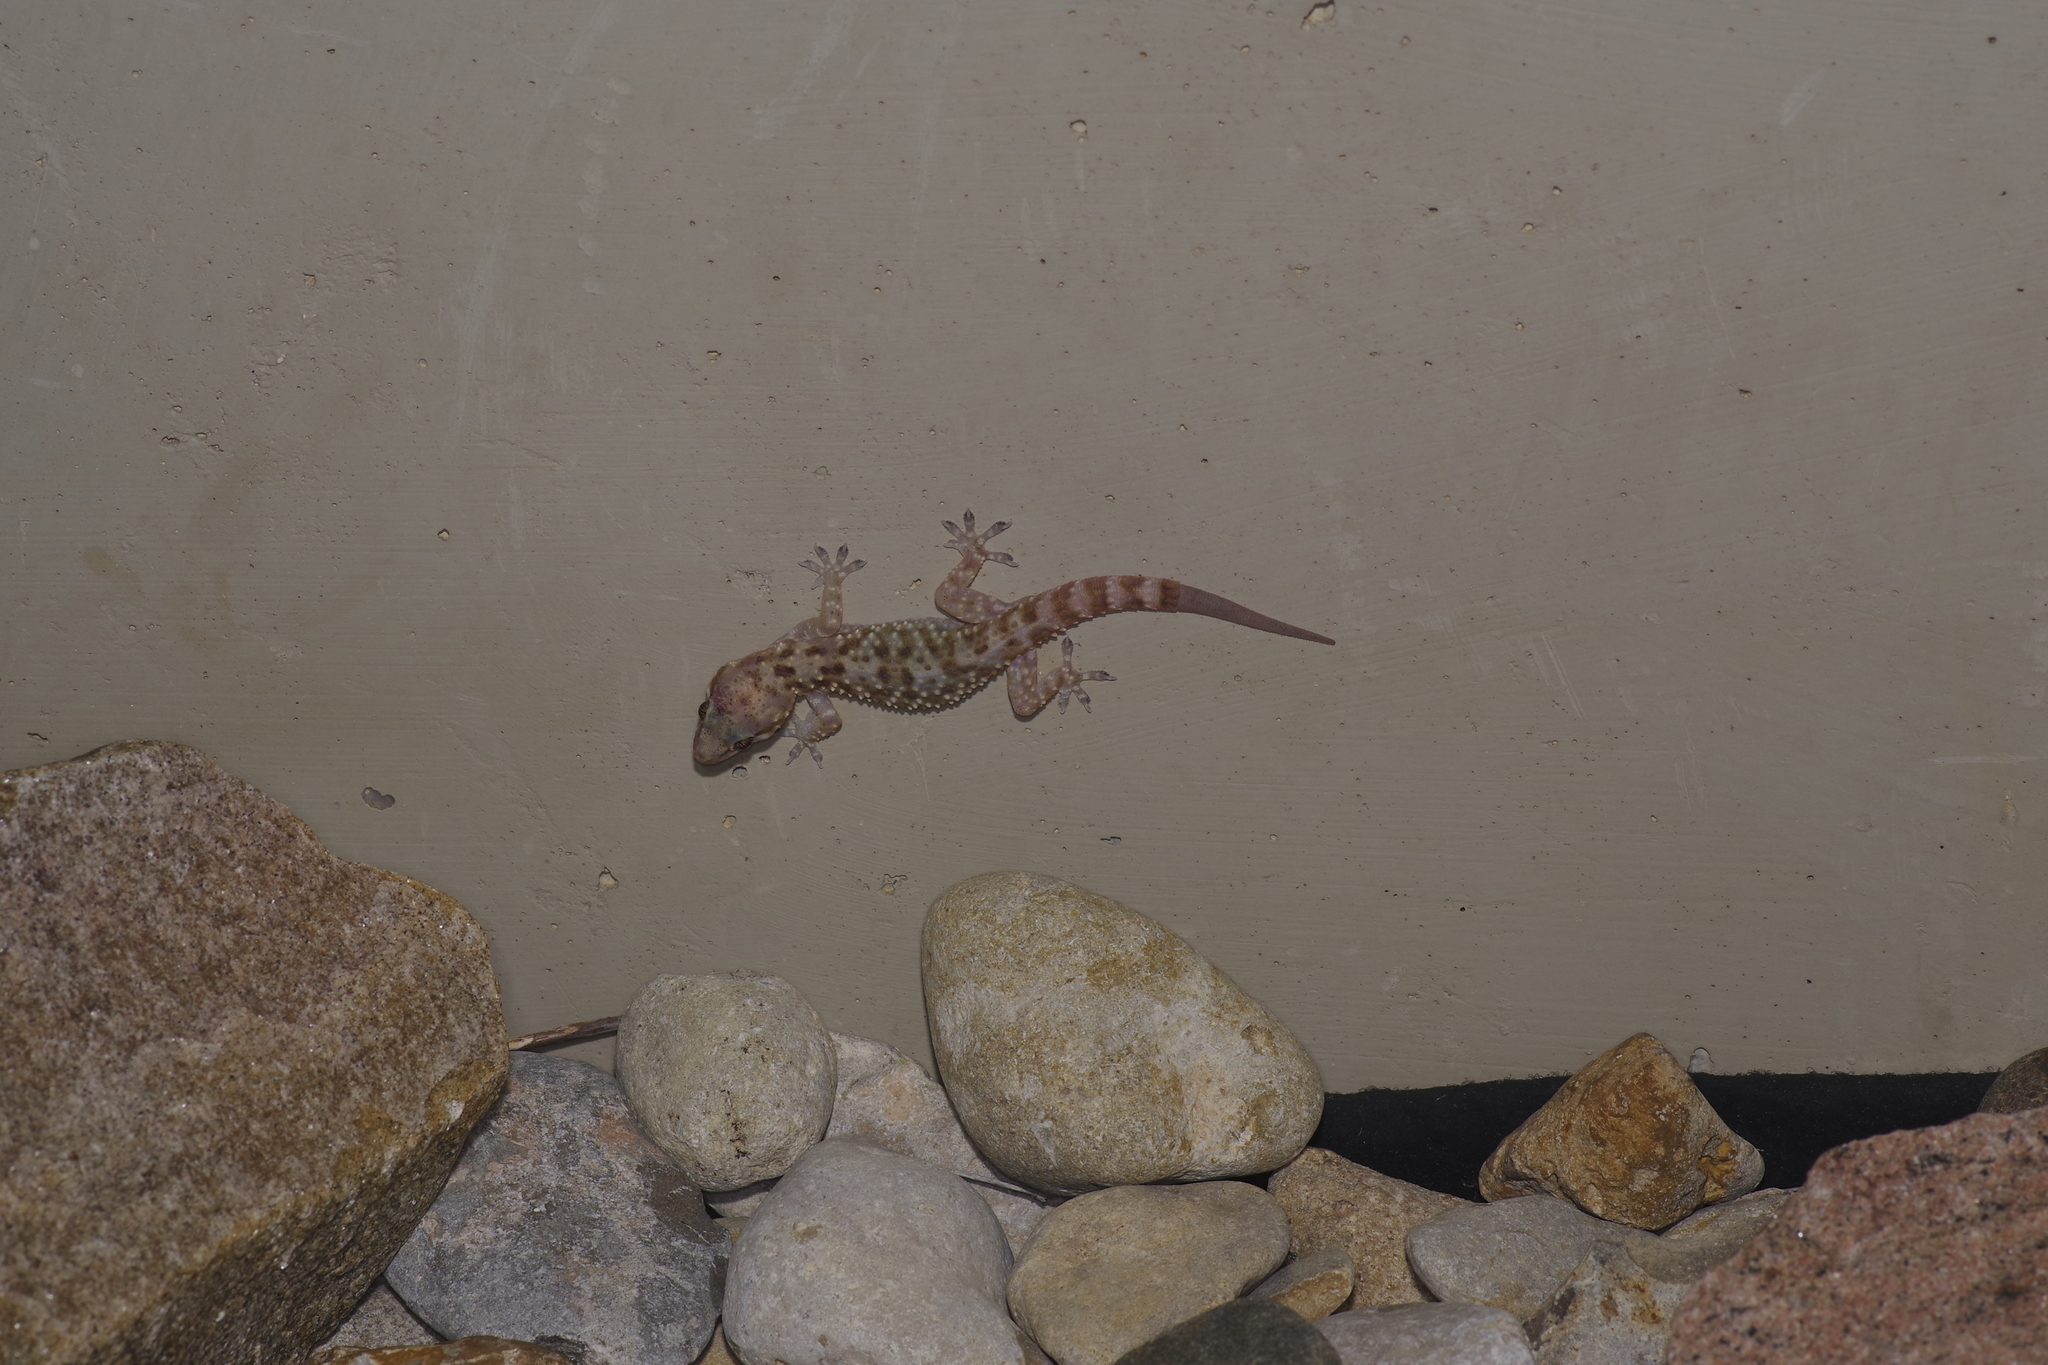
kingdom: Animalia
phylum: Chordata
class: Squamata
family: Gekkonidae
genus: Hemidactylus
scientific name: Hemidactylus turcicus
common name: Turkish gecko
